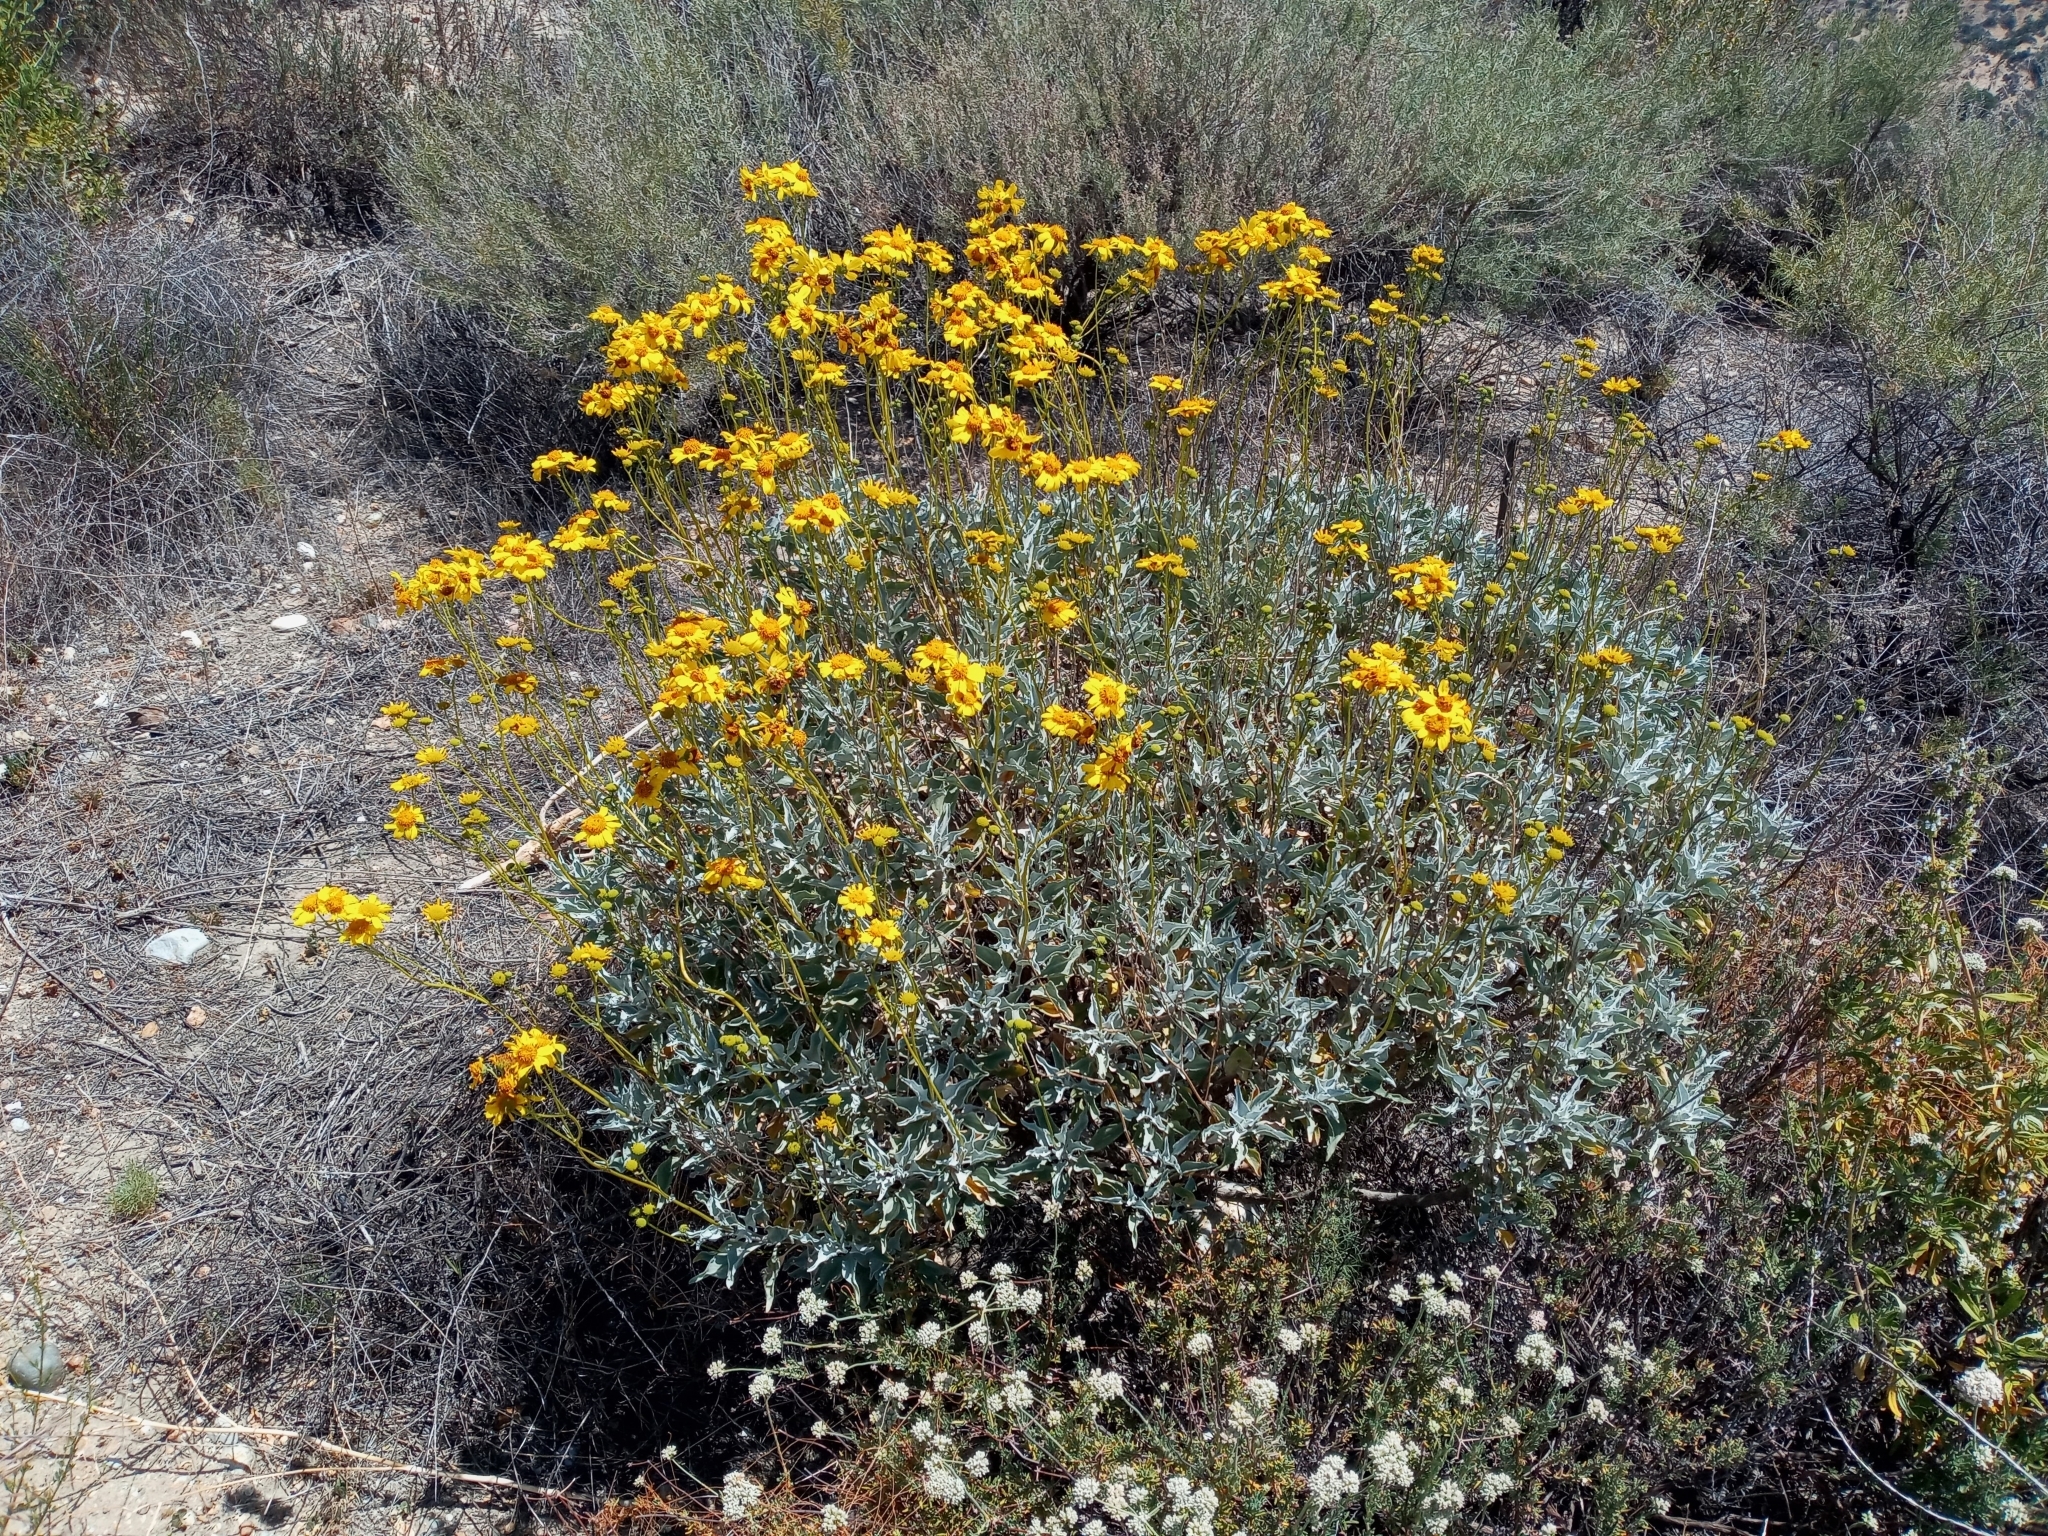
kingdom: Plantae
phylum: Tracheophyta
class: Magnoliopsida
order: Asterales
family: Asteraceae
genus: Encelia
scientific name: Encelia farinosa
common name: Brittlebush
